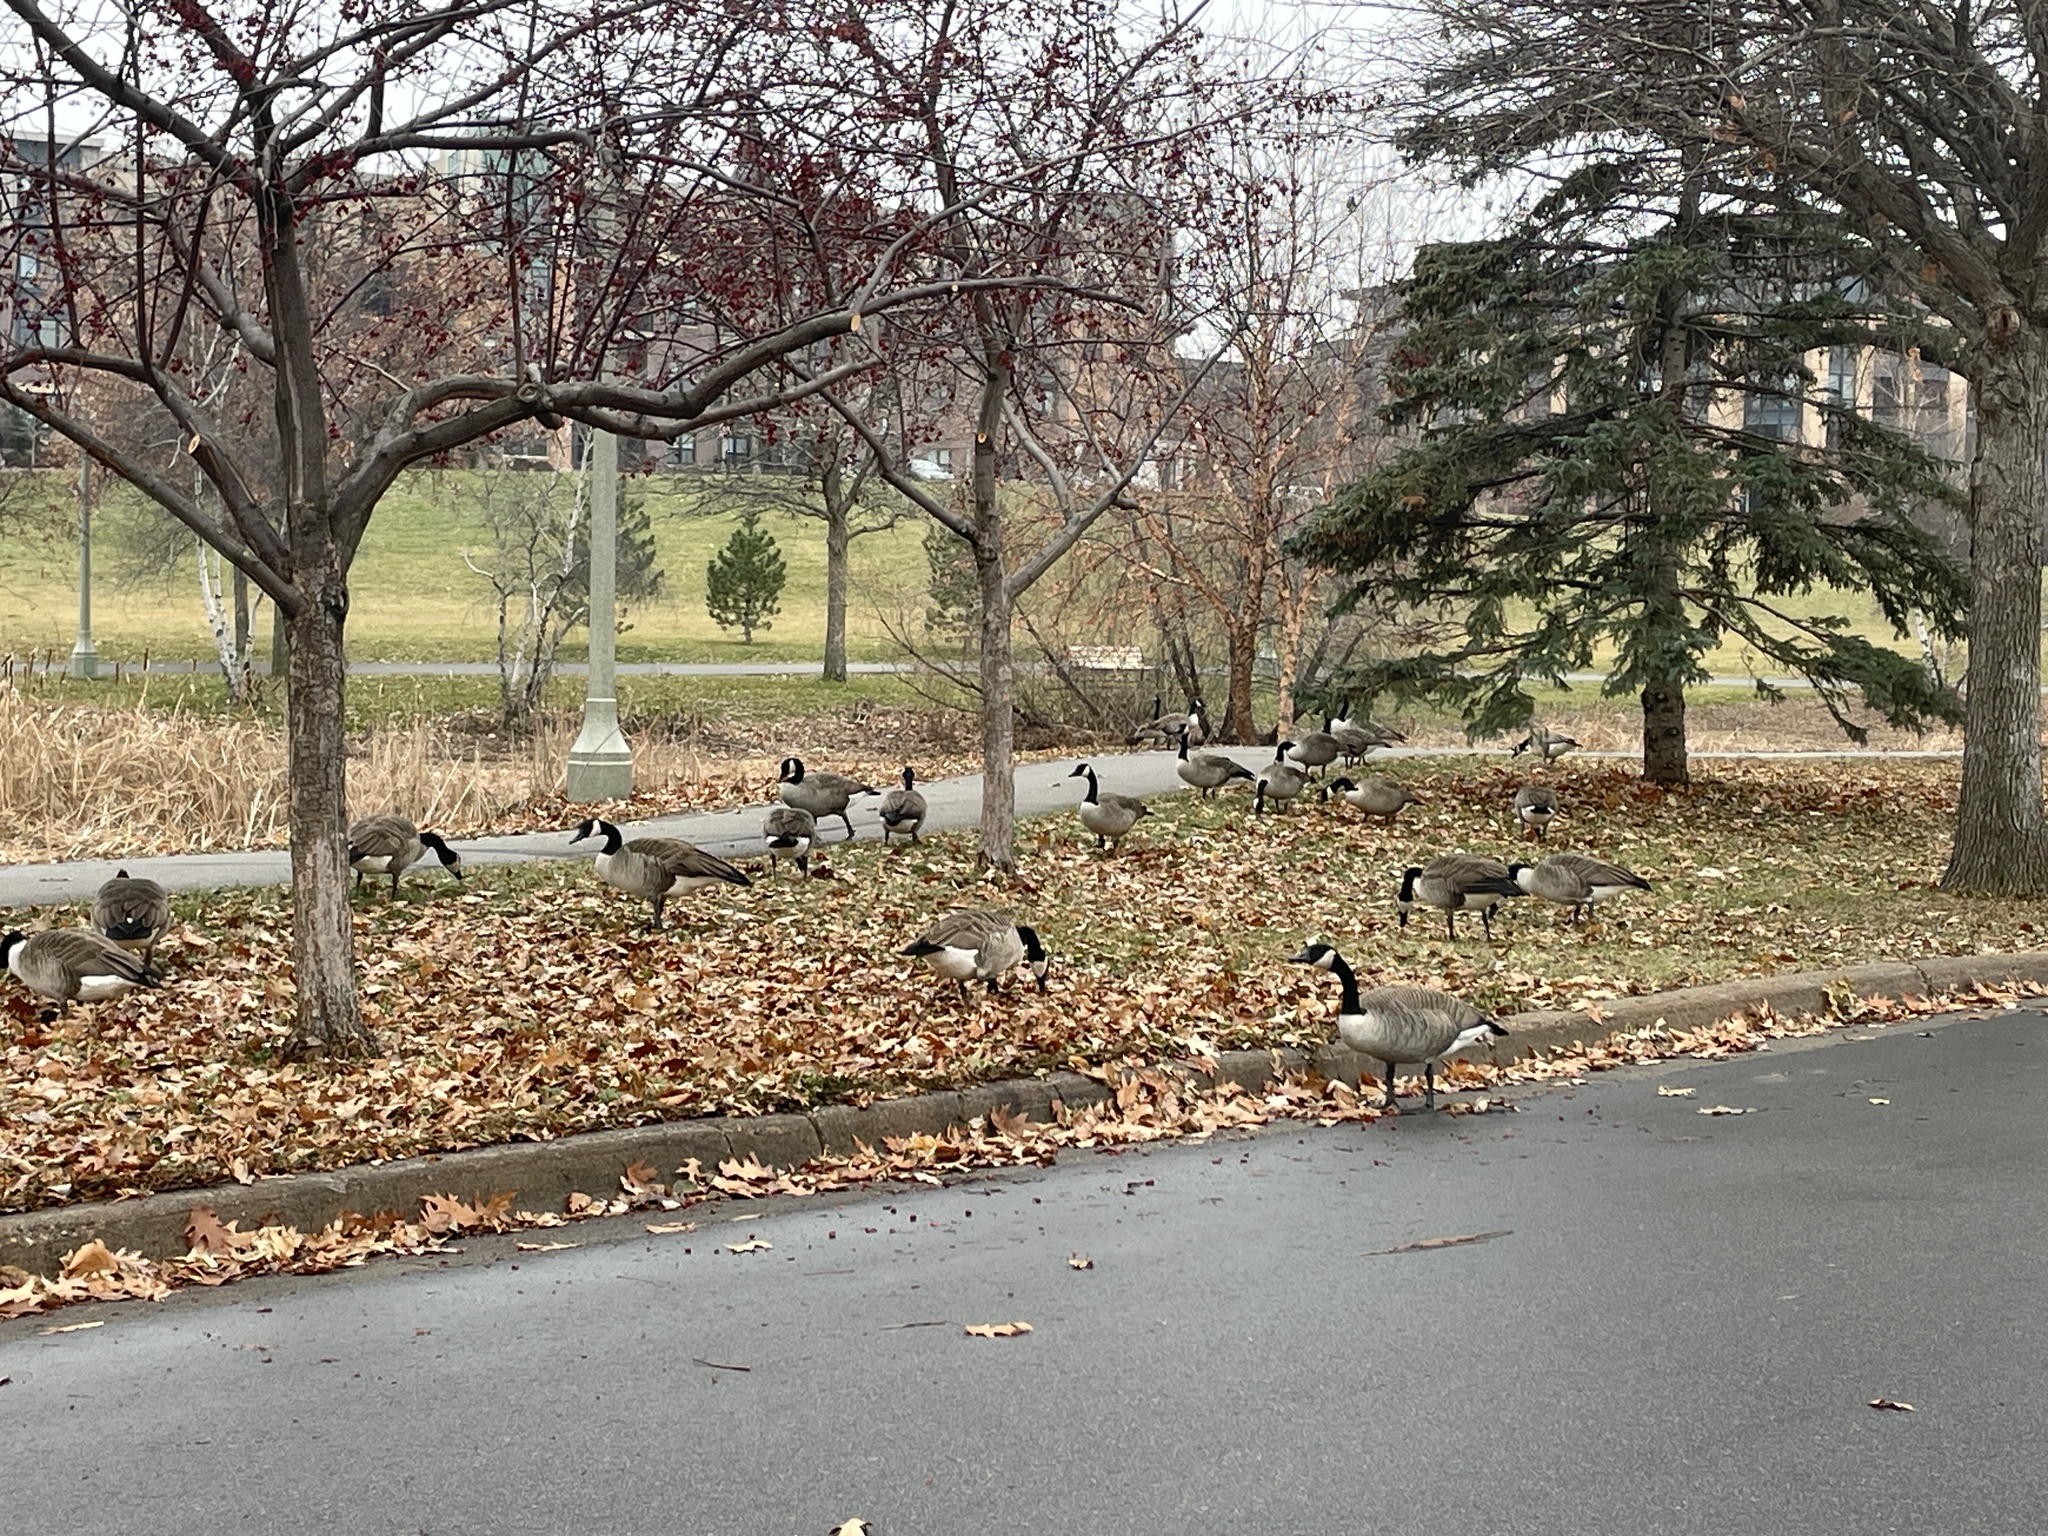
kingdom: Animalia
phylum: Chordata
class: Aves
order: Anseriformes
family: Anatidae
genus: Branta
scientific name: Branta canadensis
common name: Canada goose
